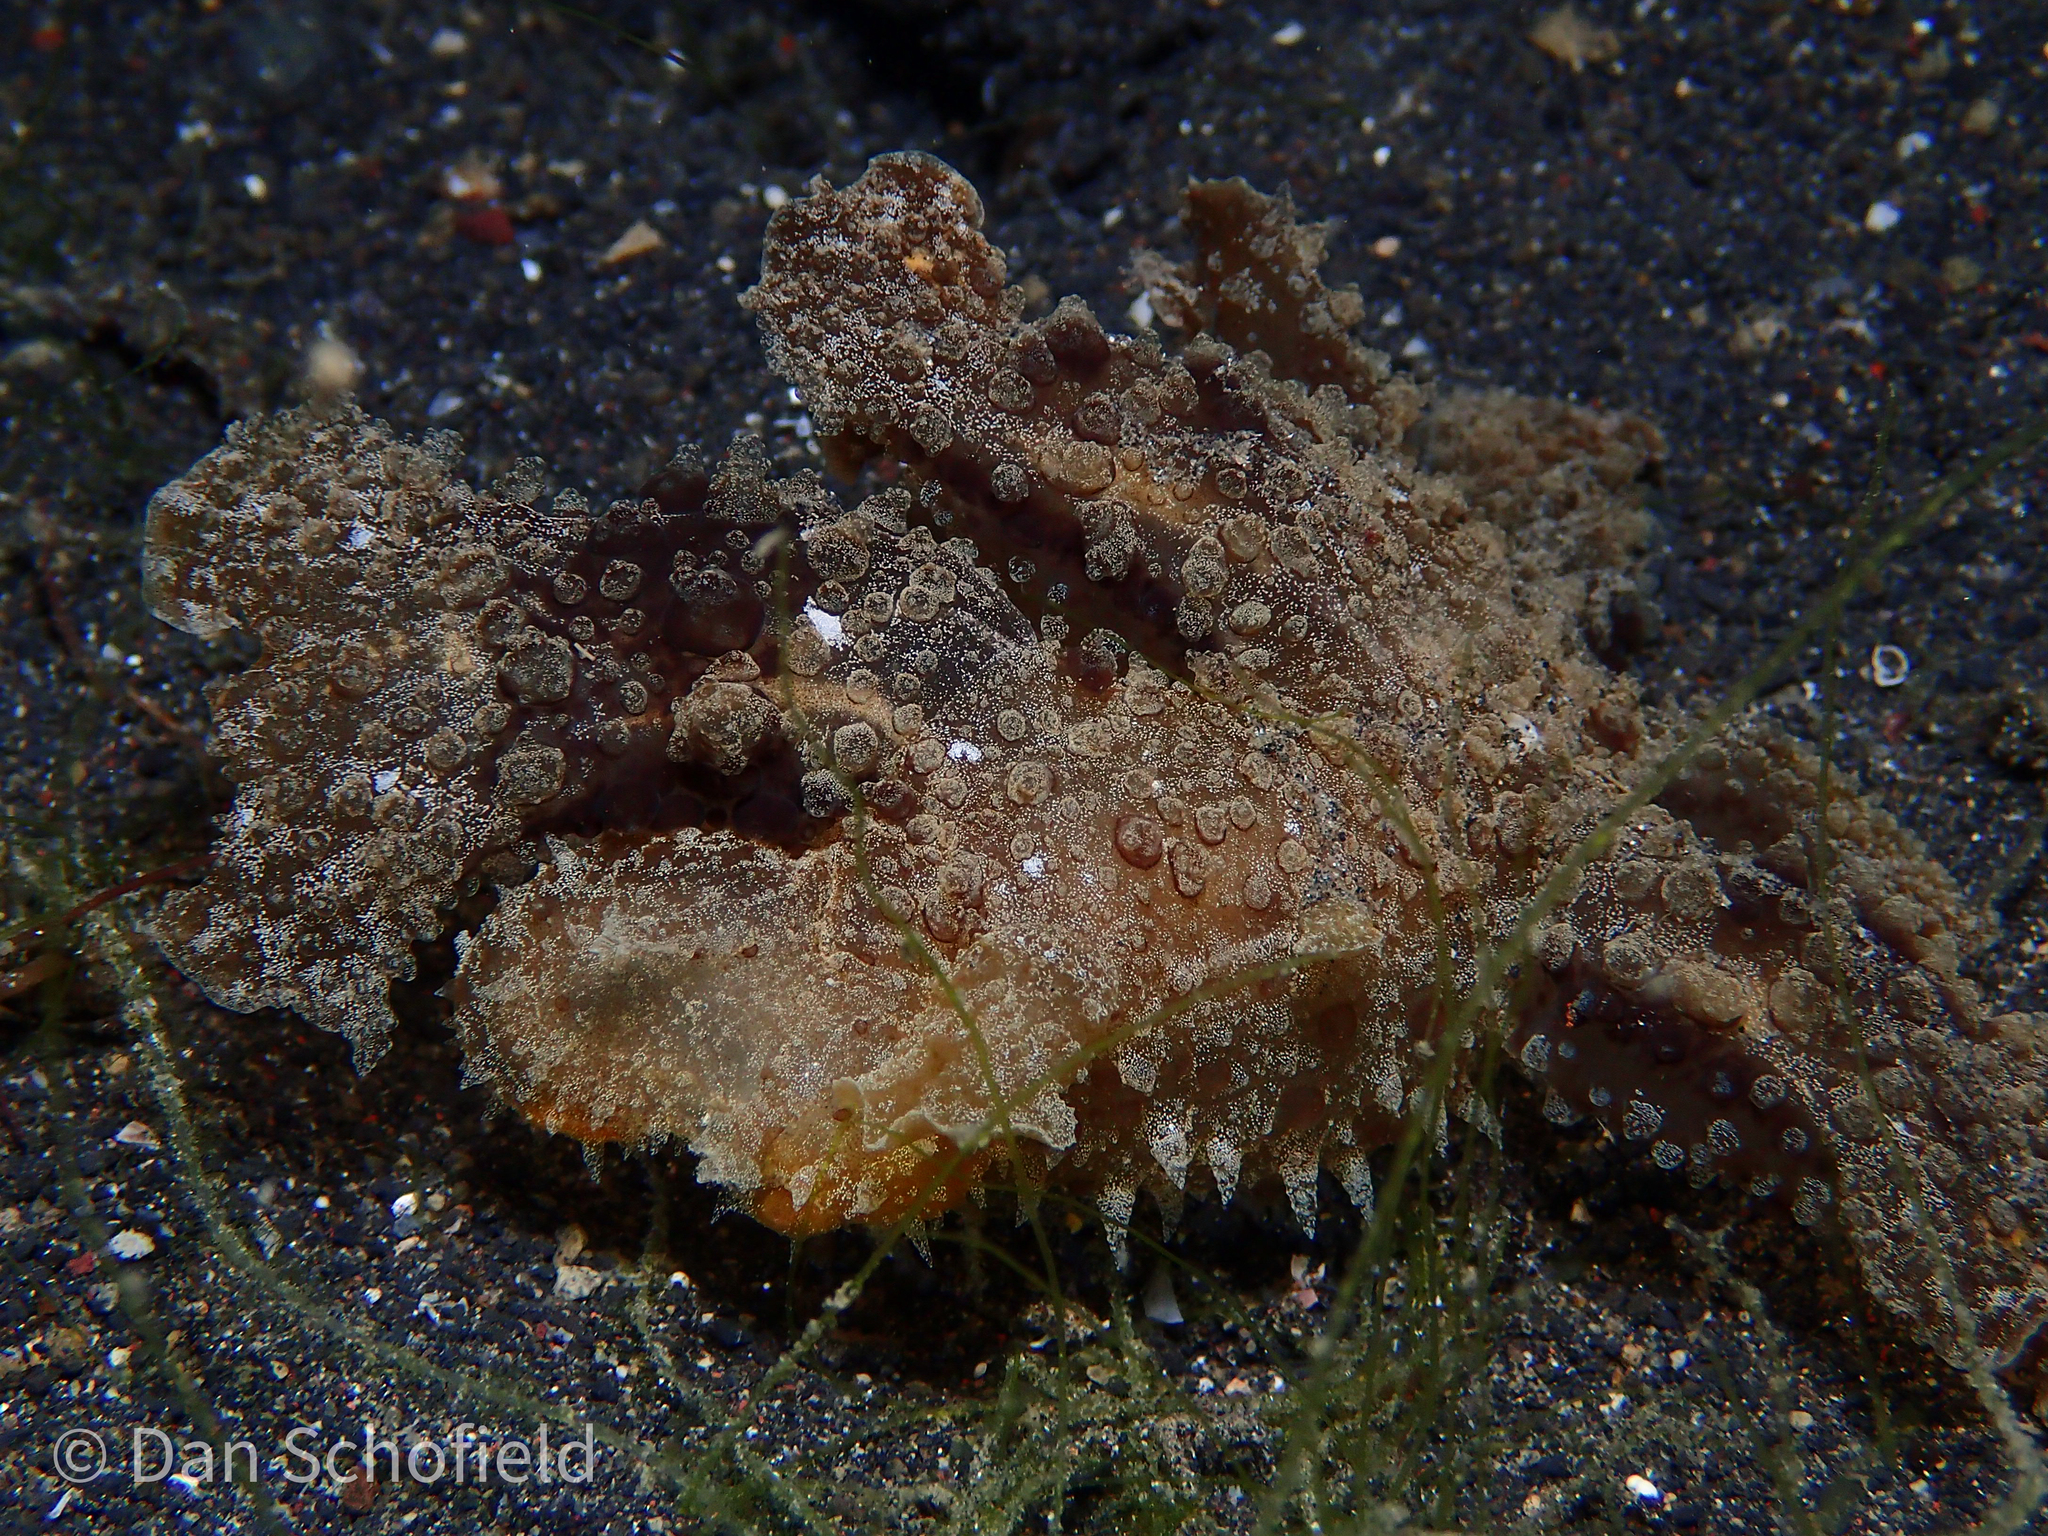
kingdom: Animalia
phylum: Mollusca
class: Gastropoda
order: Nudibranchia
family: Tethydidae
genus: Melibe
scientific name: Melibe viridis
